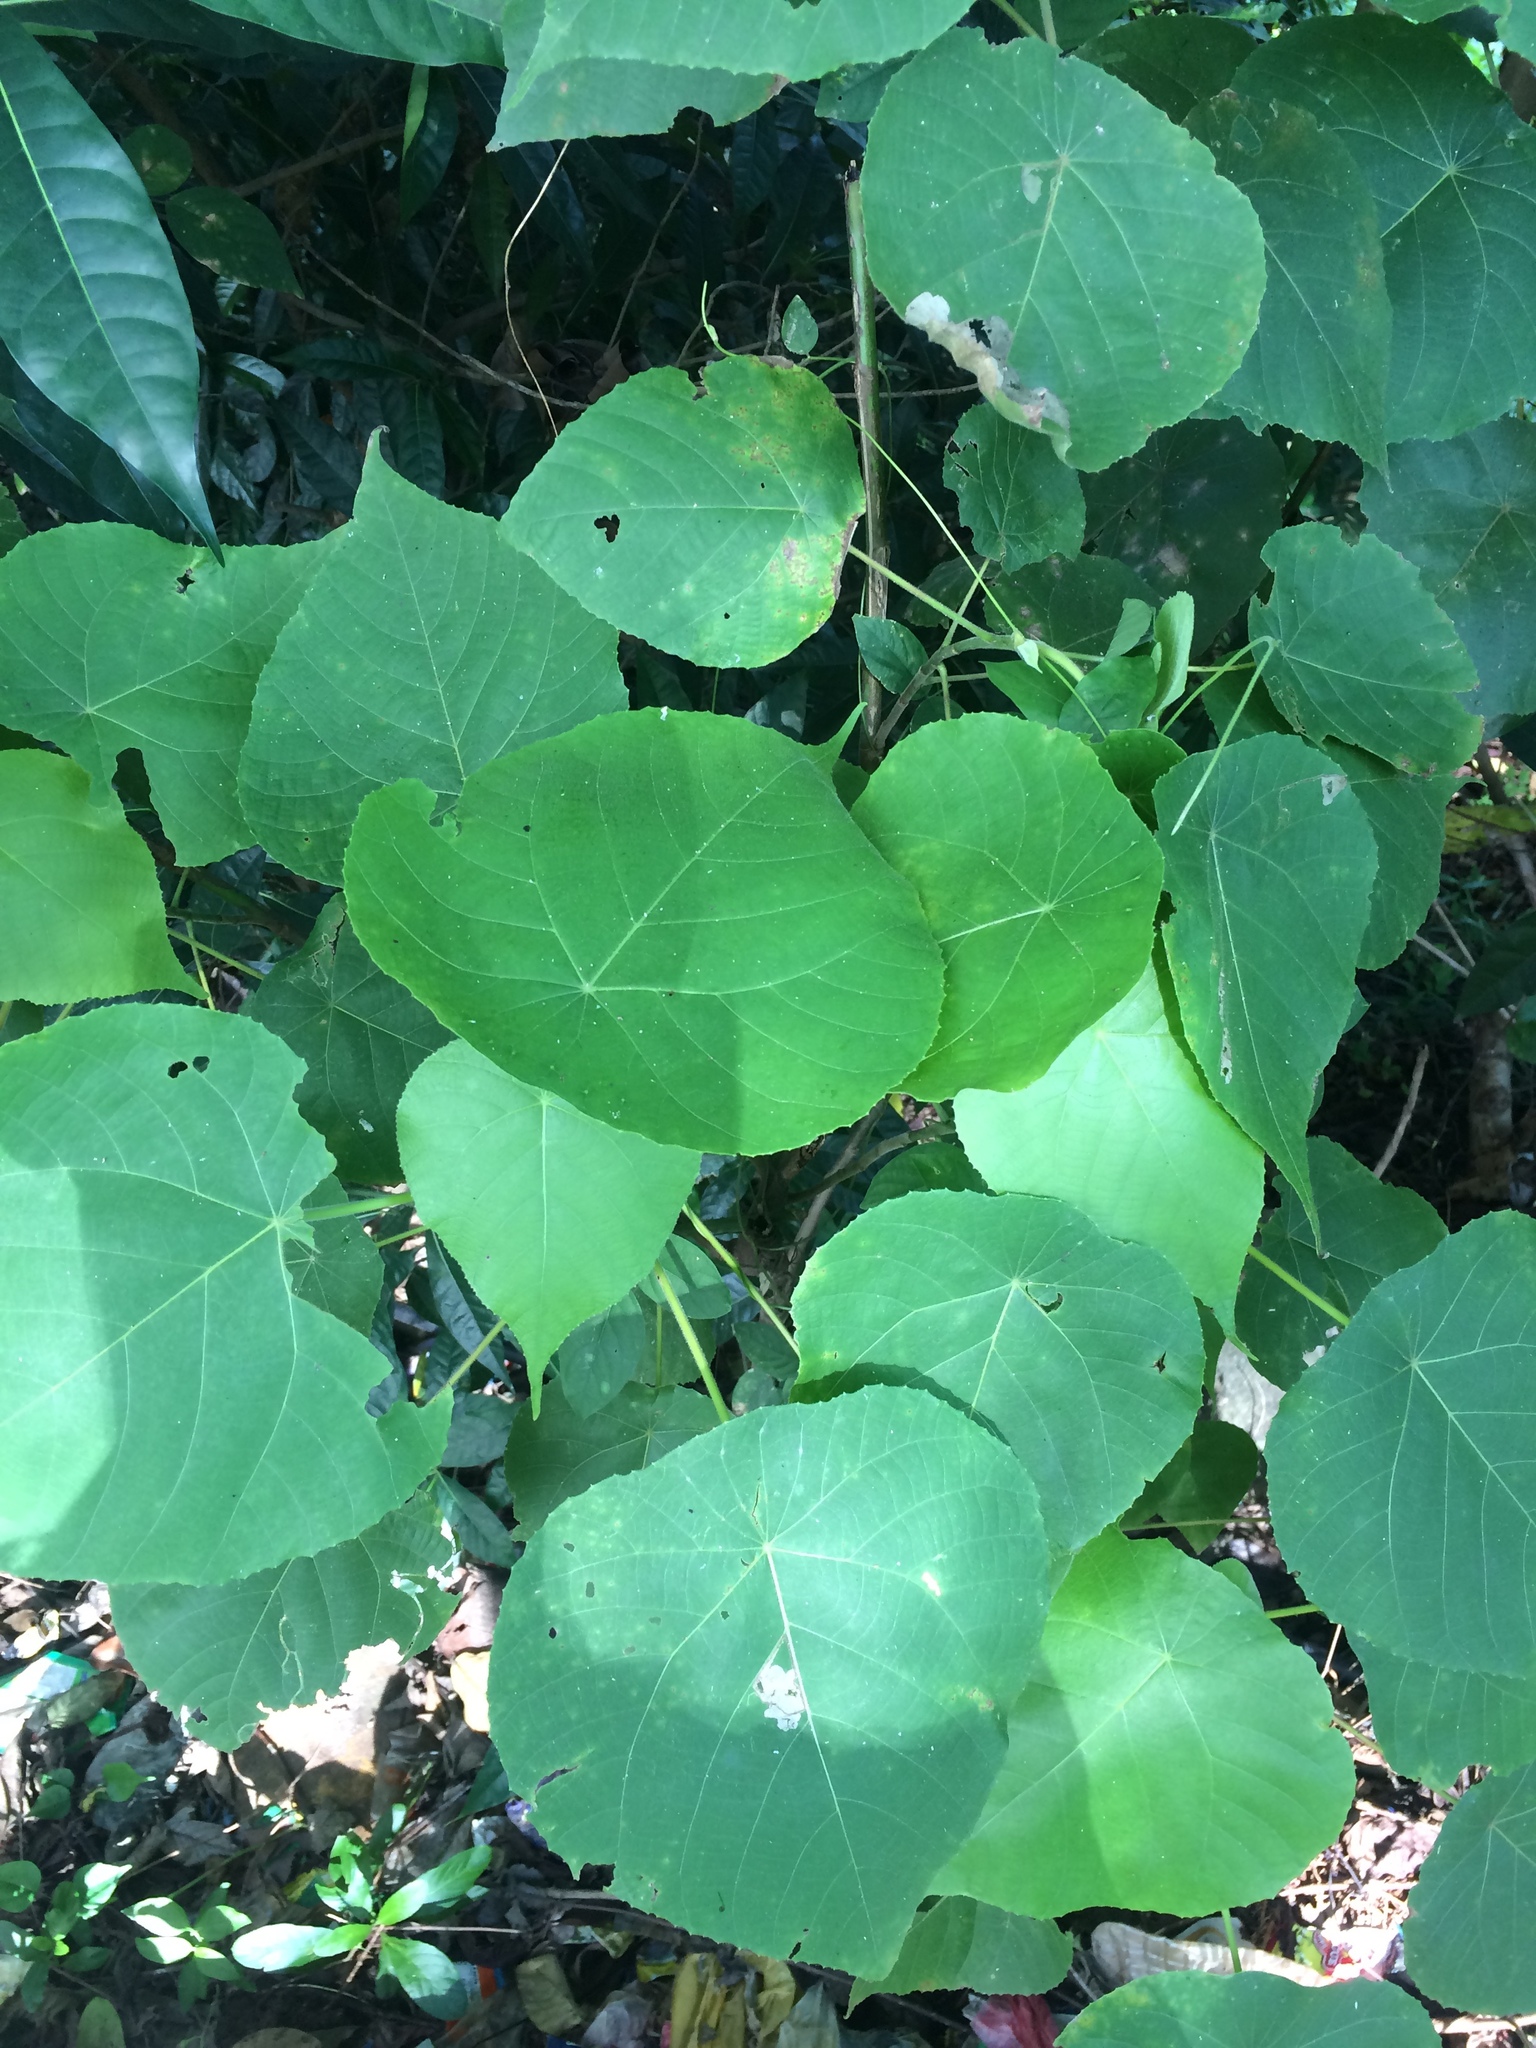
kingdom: Plantae
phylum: Tracheophyta
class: Magnoliopsida
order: Malpighiales
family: Euphorbiaceae
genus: Macaranga
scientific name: Macaranga tanarius
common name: Parasol leaf tree
